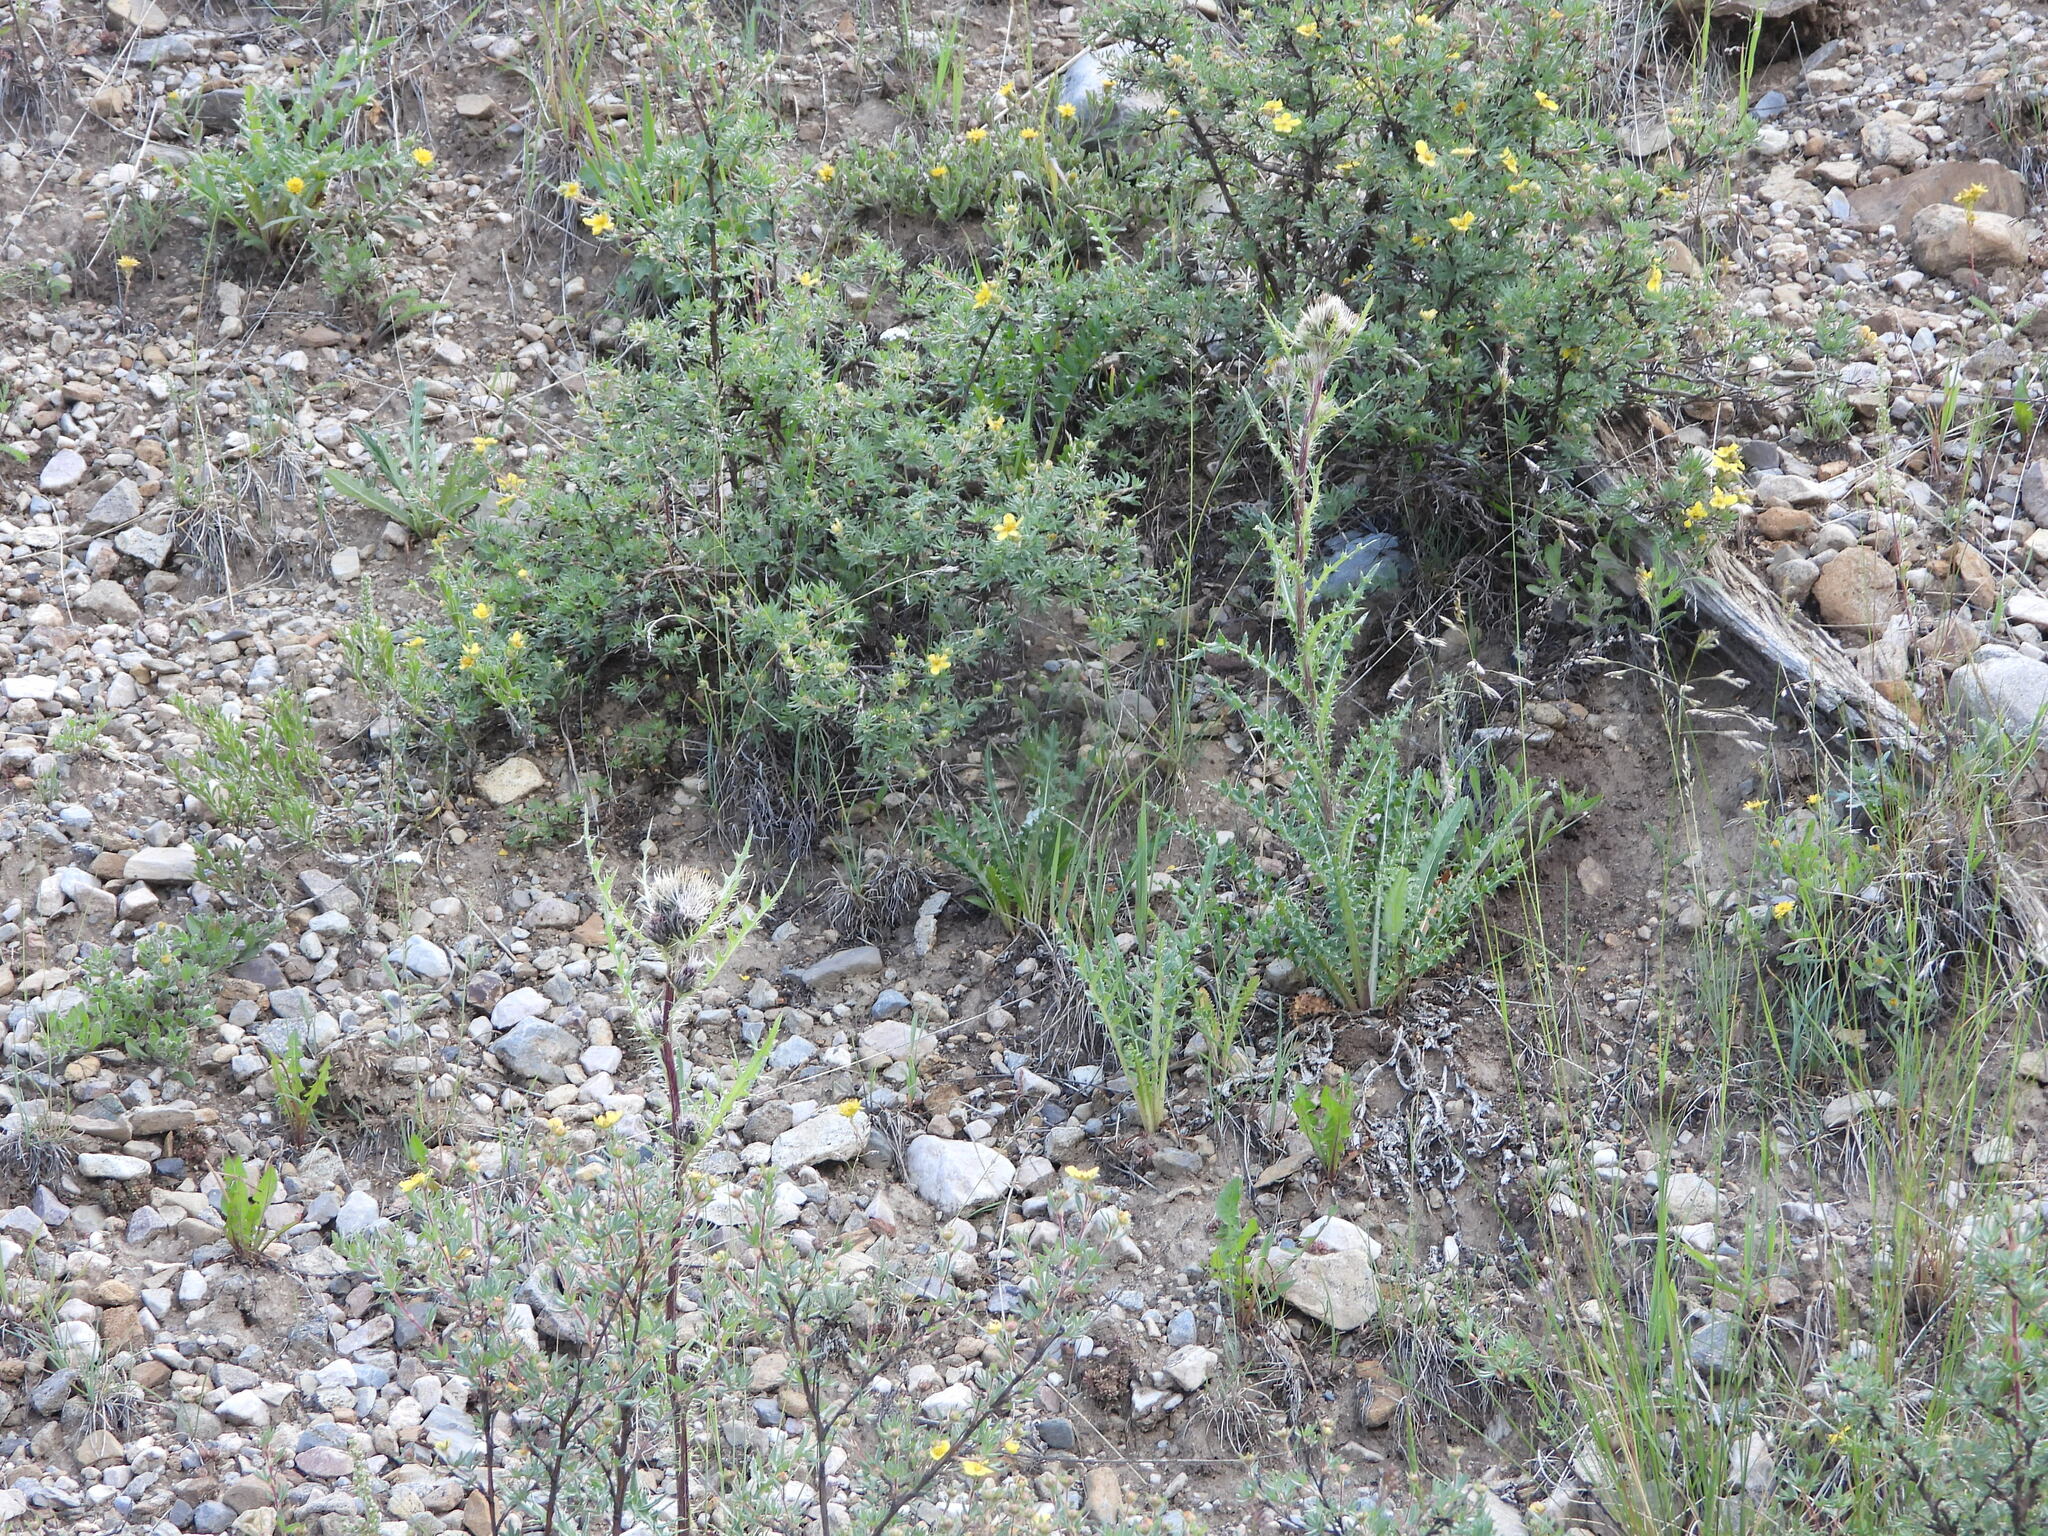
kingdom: Plantae
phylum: Tracheophyta
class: Magnoliopsida
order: Asterales
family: Asteraceae
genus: Cirsium
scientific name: Cirsium griseum
